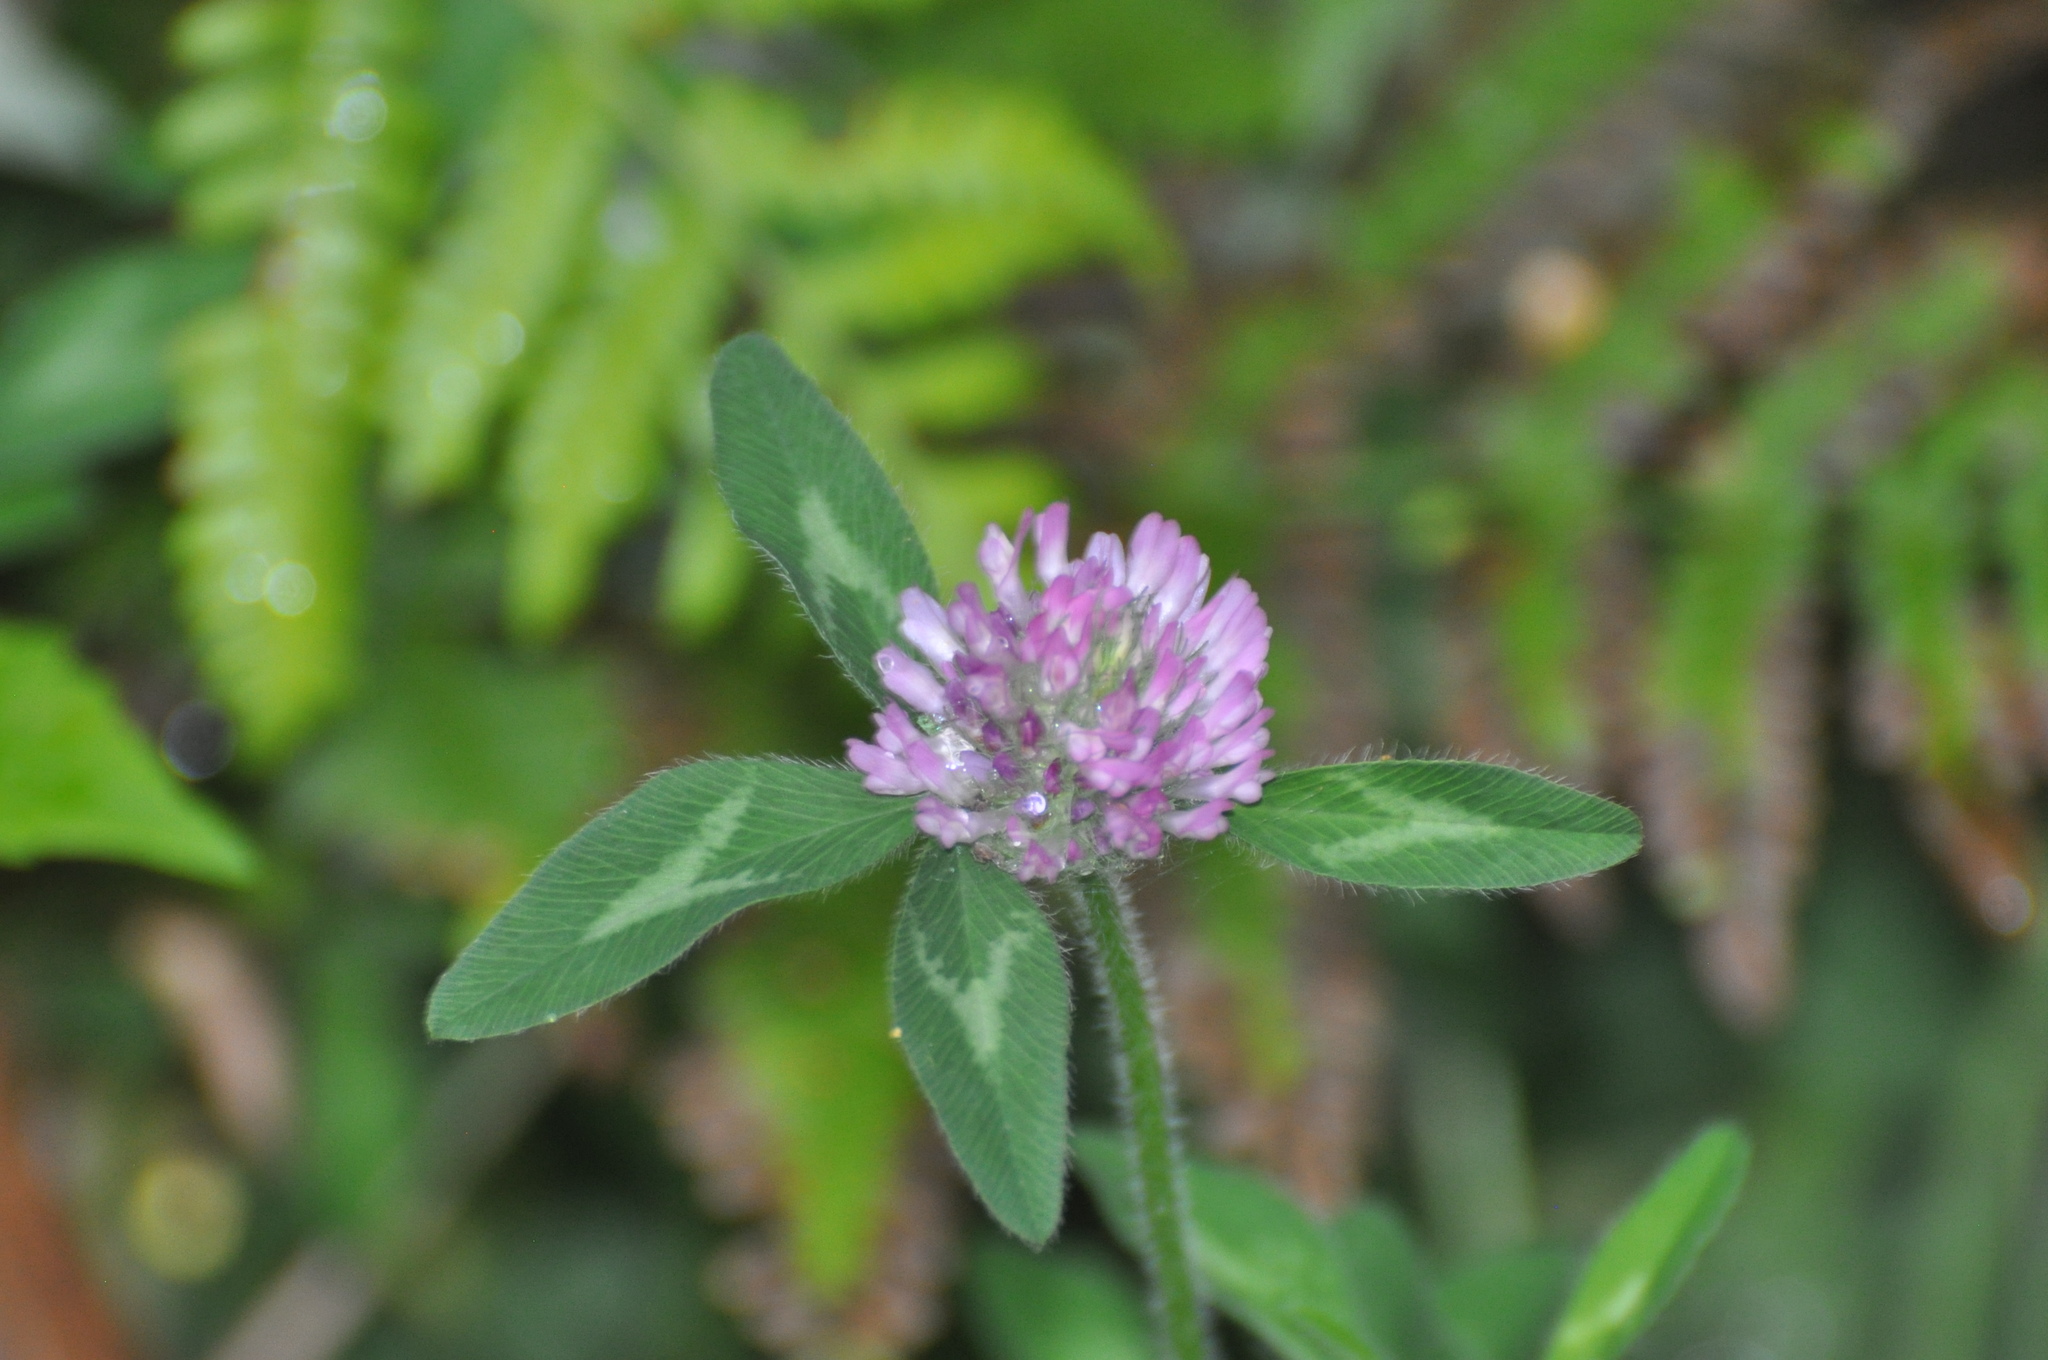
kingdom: Plantae
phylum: Tracheophyta
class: Magnoliopsida
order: Fabales
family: Fabaceae
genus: Trifolium
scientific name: Trifolium pratense
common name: Red clover
